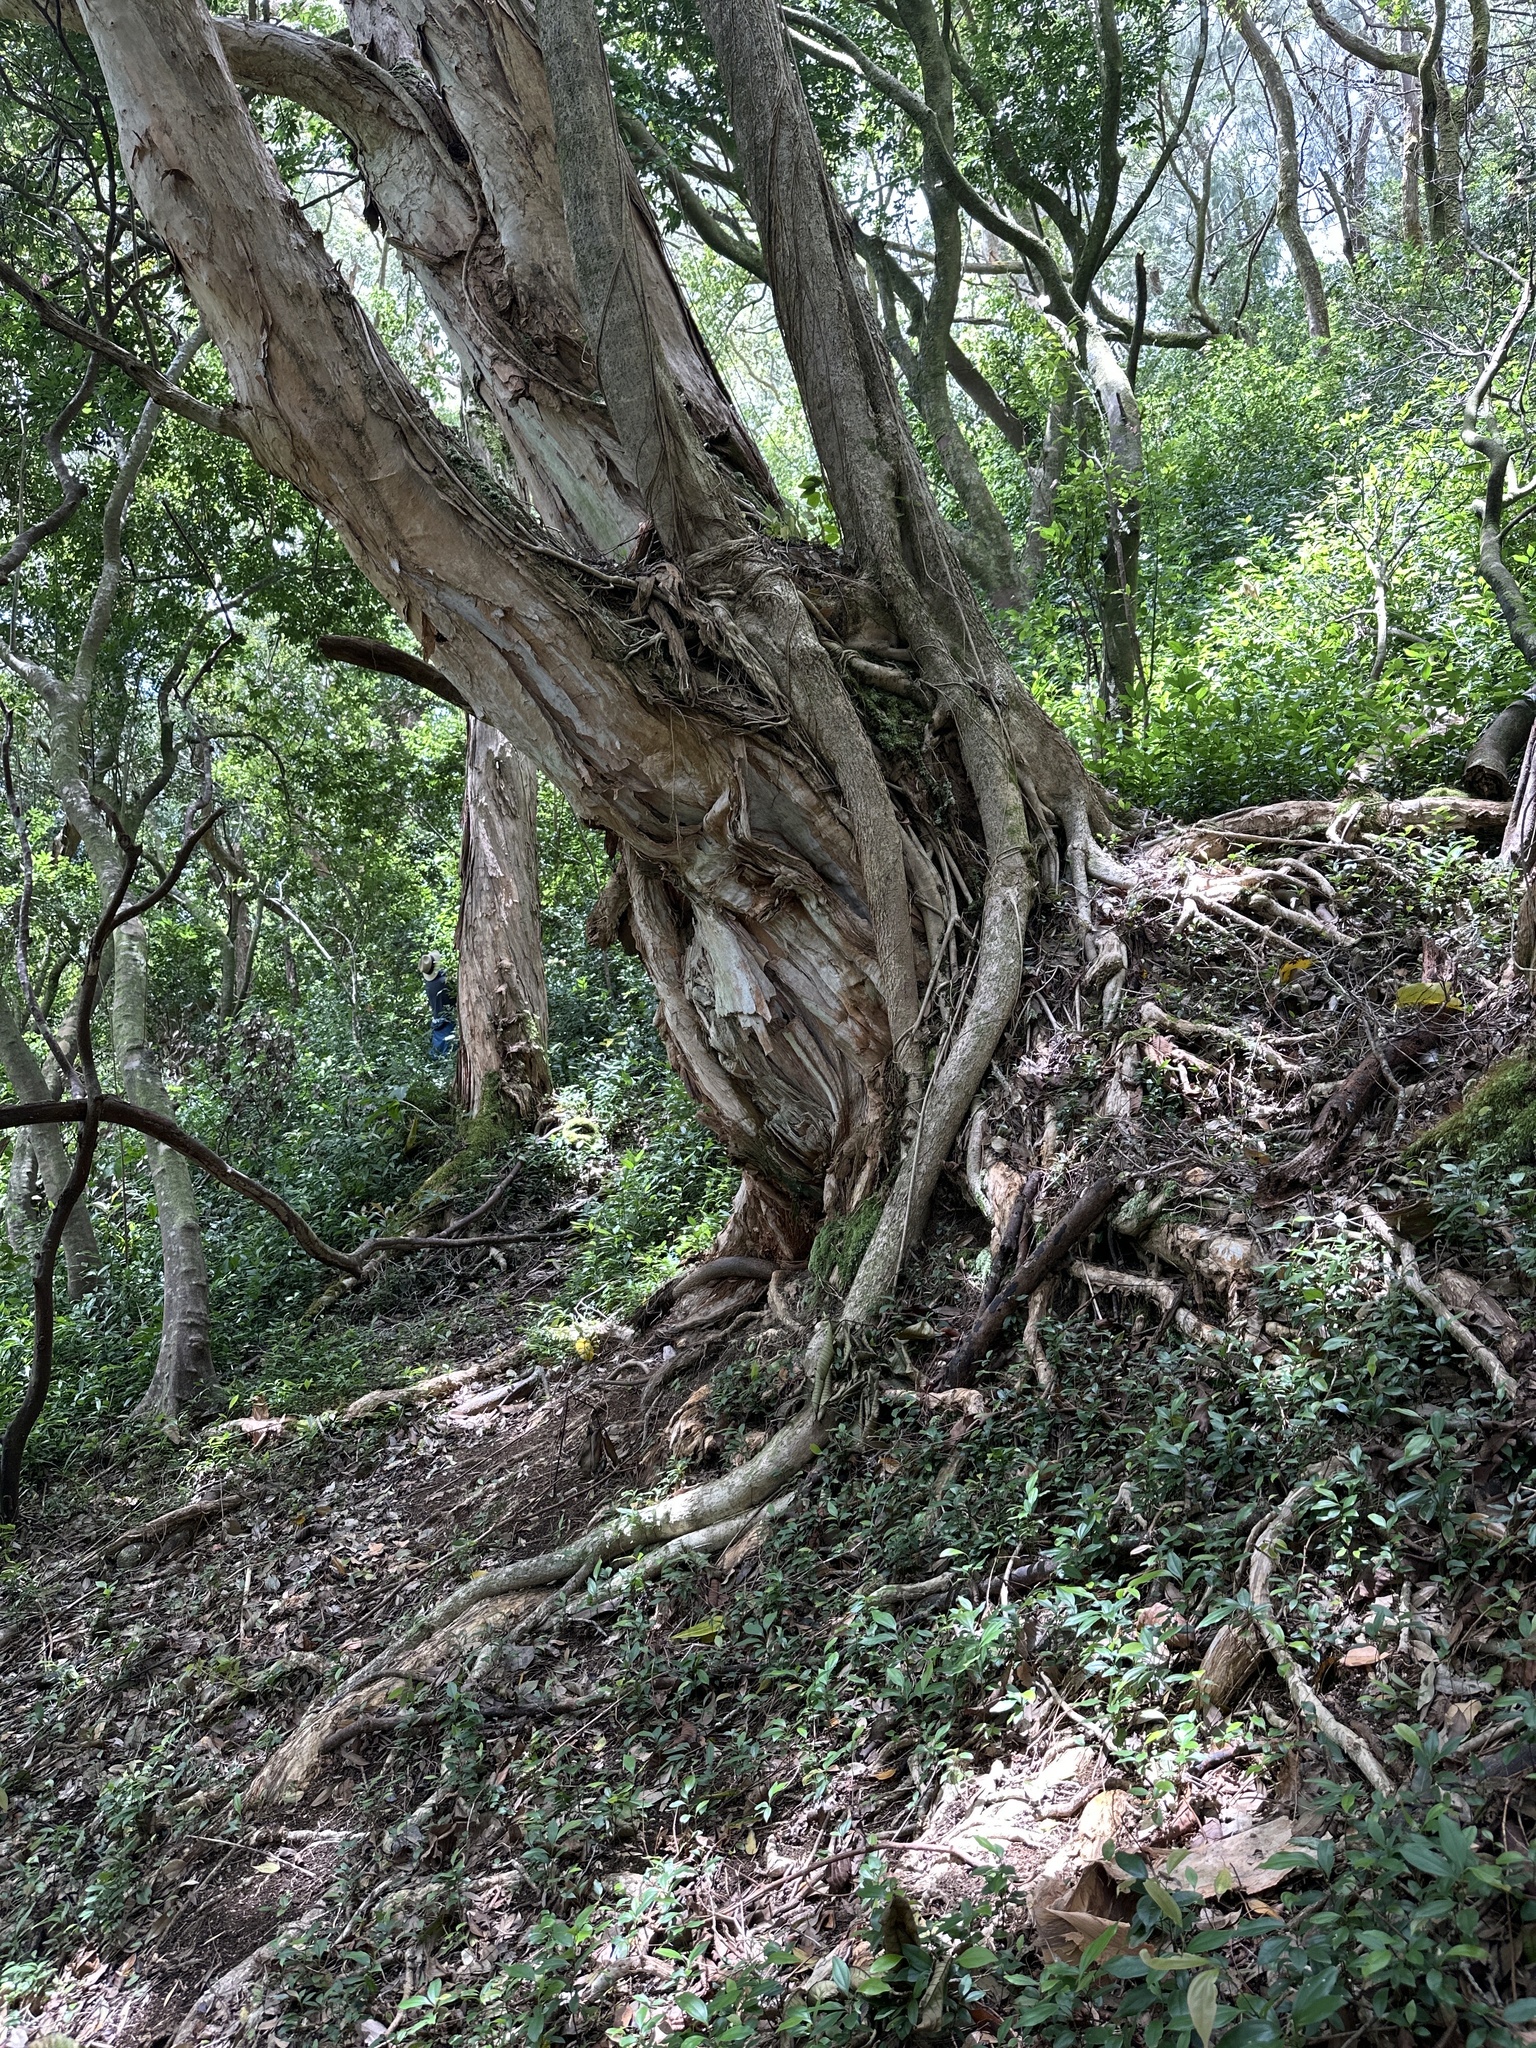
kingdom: Plantae
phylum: Tracheophyta
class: Magnoliopsida
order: Myrtales
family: Myrtaceae
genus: Melaleuca
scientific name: Melaleuca quinquenervia
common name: Punktree
